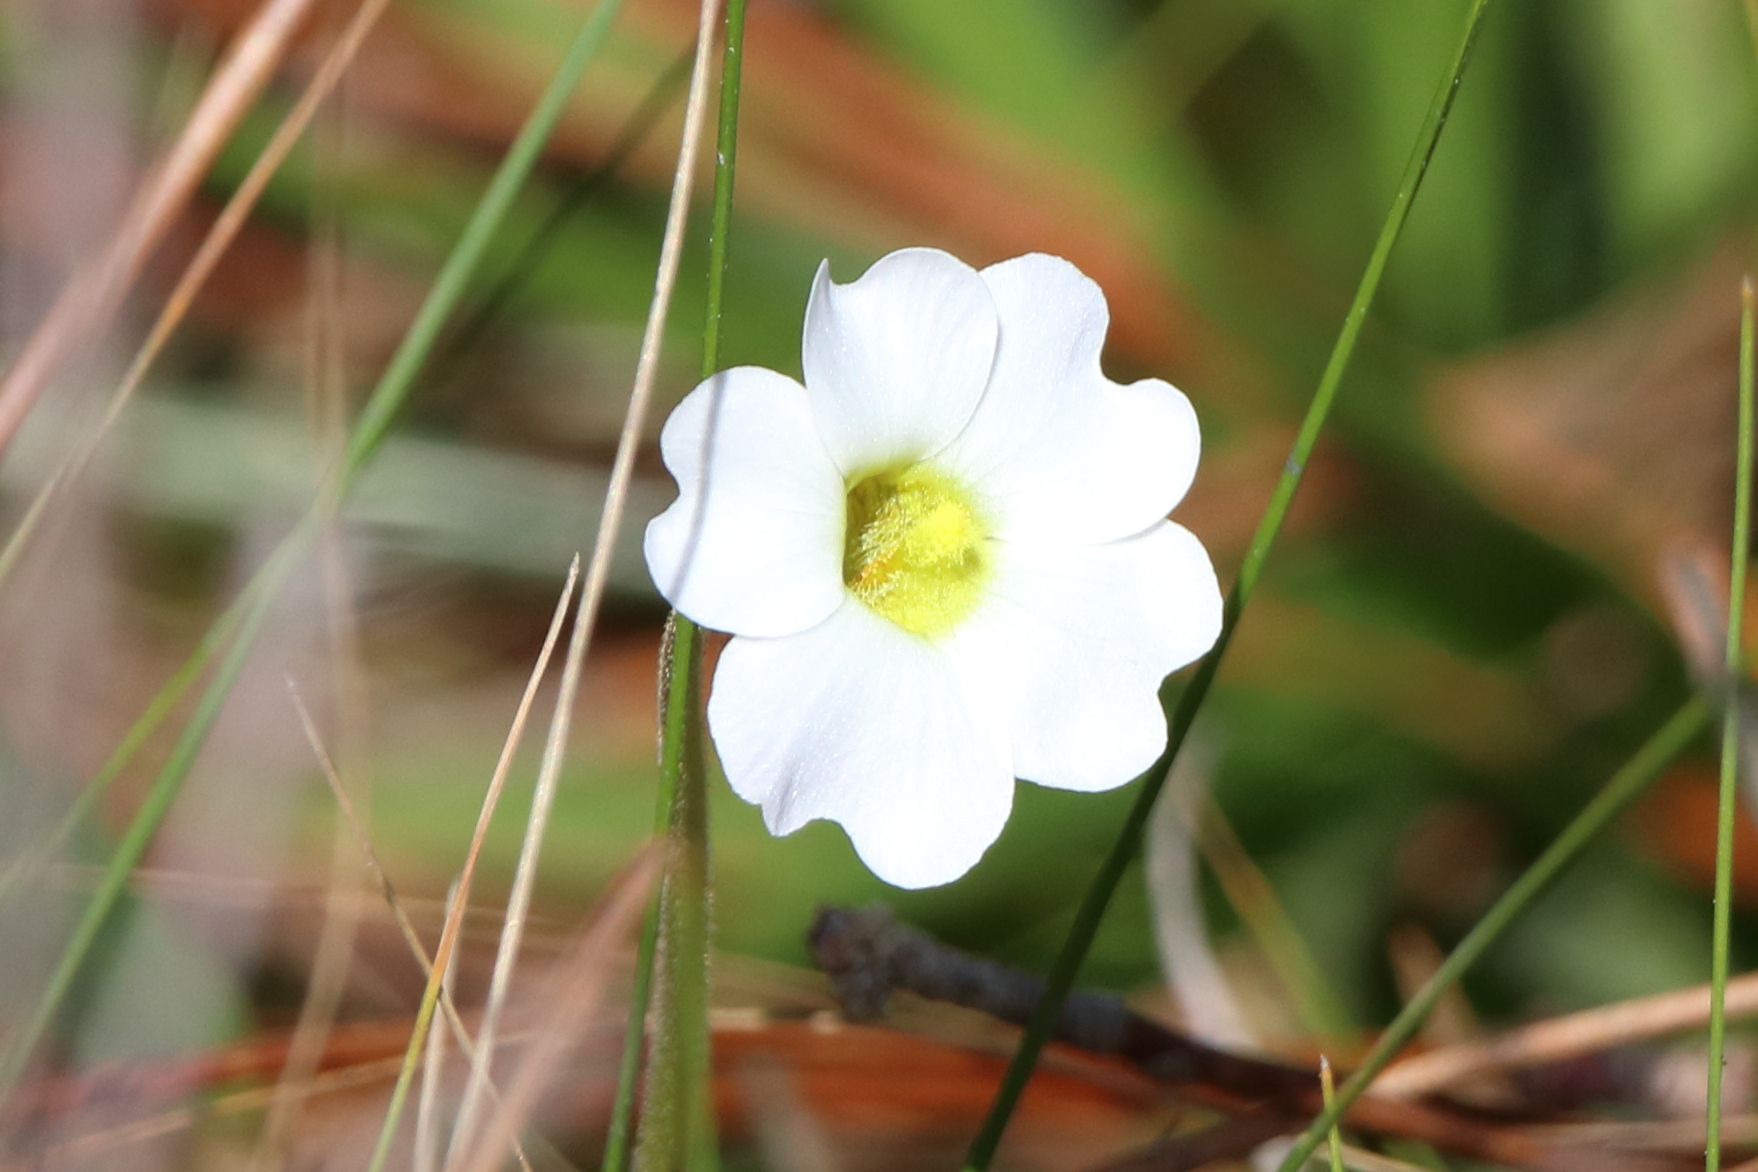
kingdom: Plantae
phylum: Tracheophyta
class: Magnoliopsida
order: Lamiales
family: Lentibulariaceae
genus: Pinguicula
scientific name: Pinguicula primuliflora
